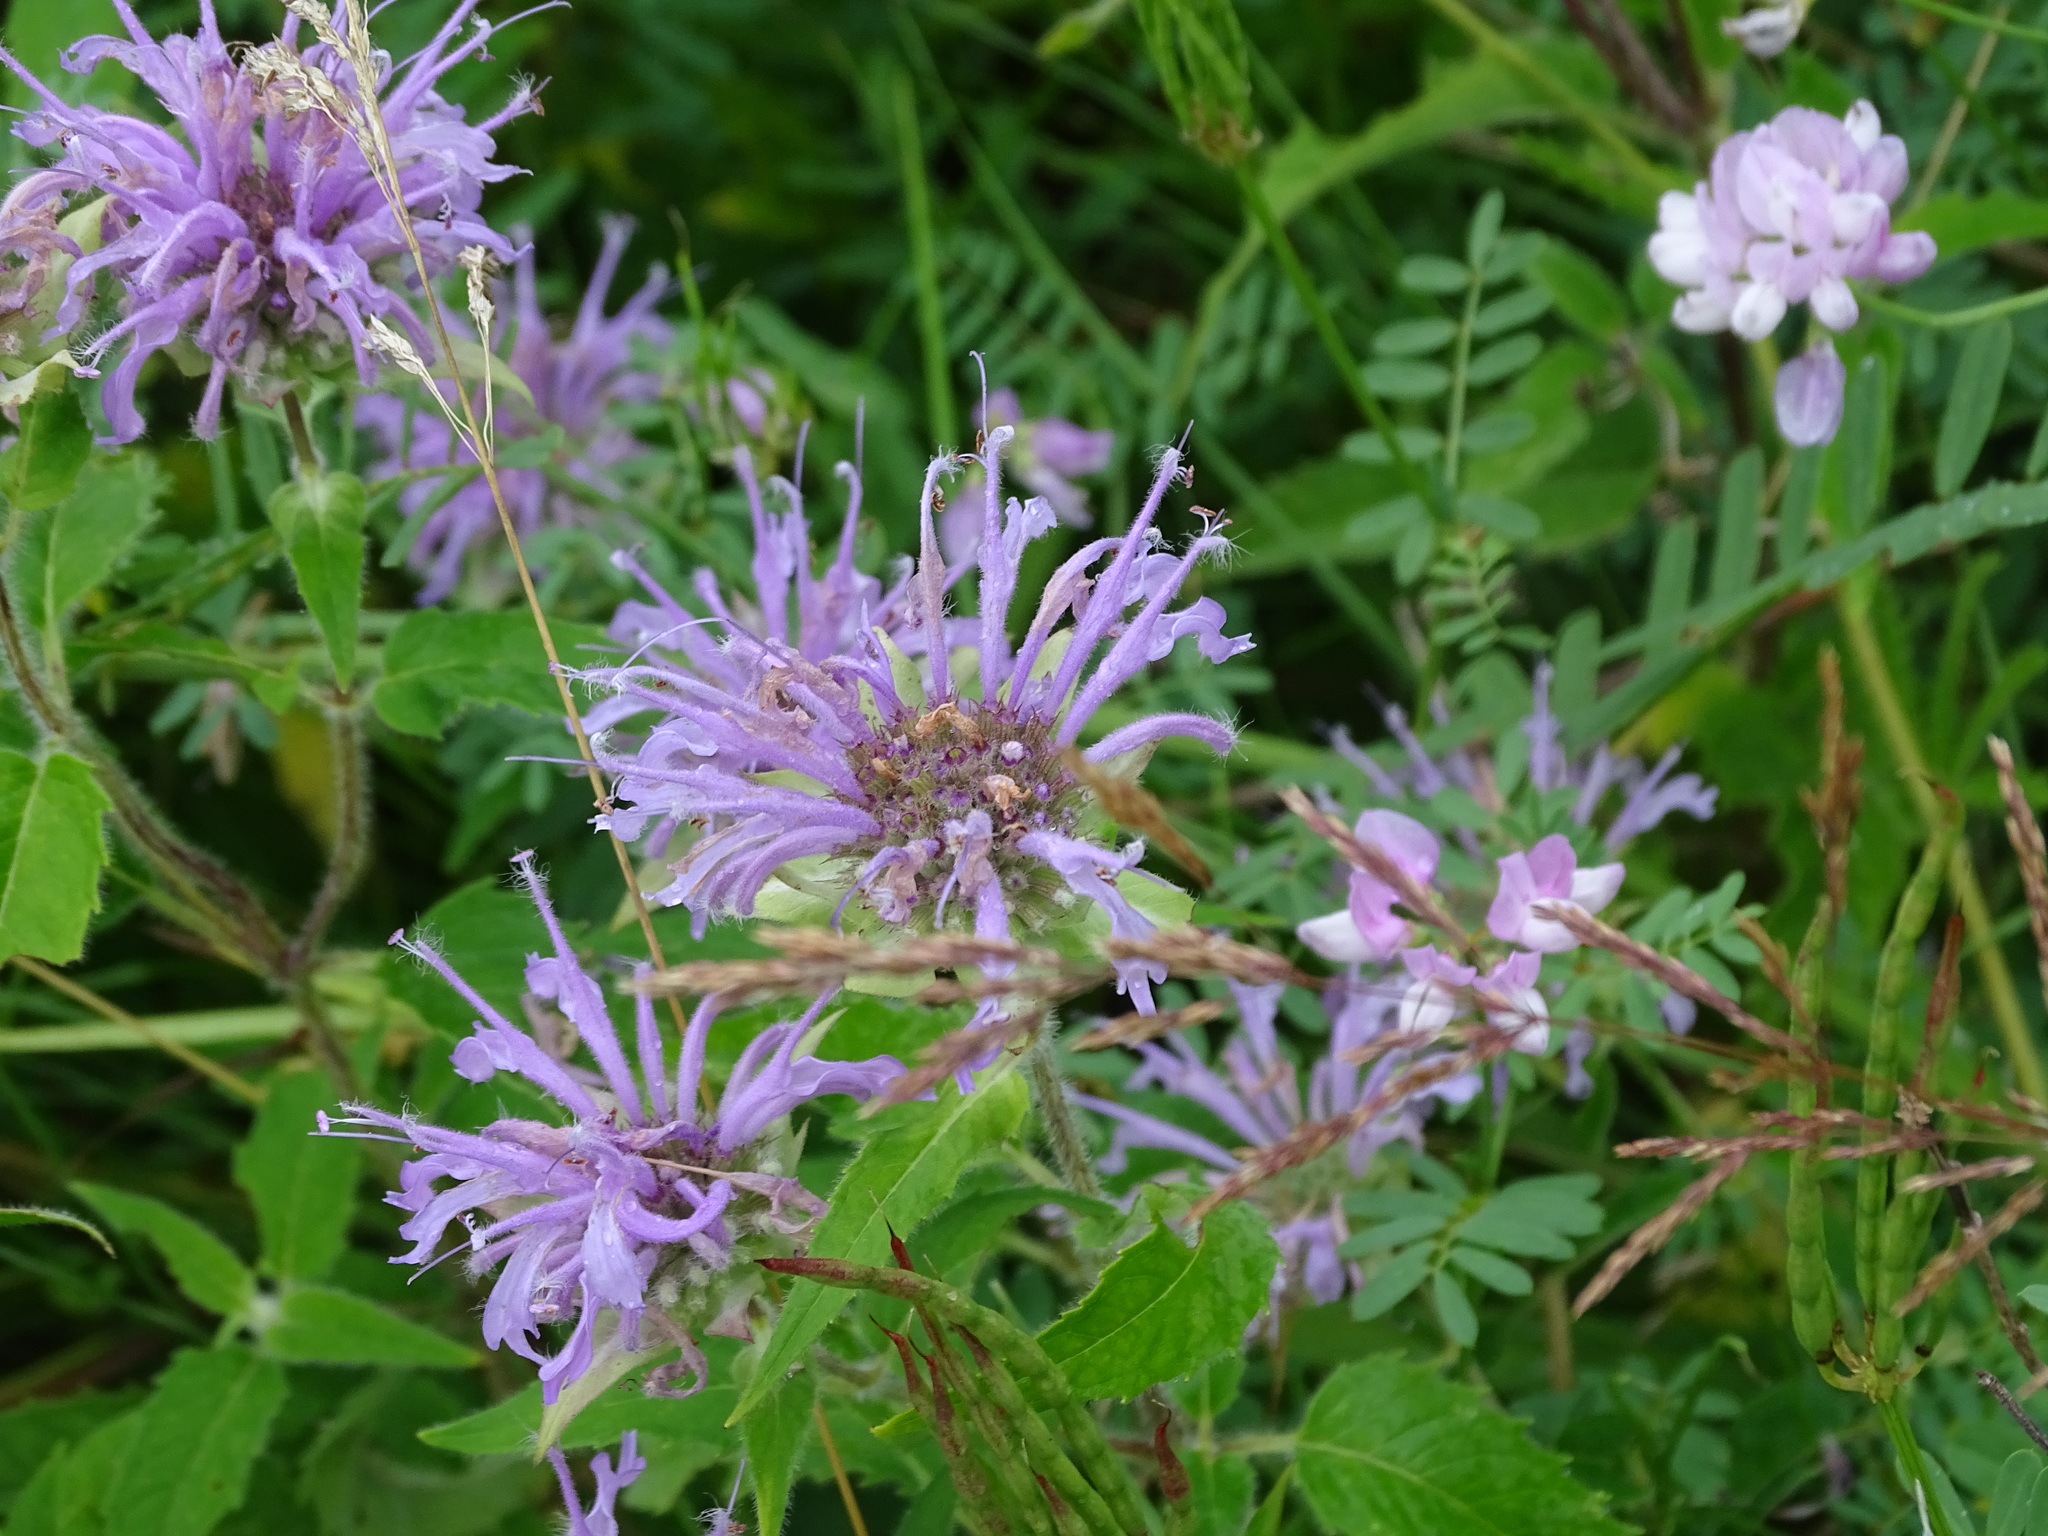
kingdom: Plantae
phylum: Tracheophyta
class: Magnoliopsida
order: Lamiales
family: Lamiaceae
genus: Monarda
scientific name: Monarda fistulosa
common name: Purple beebalm
